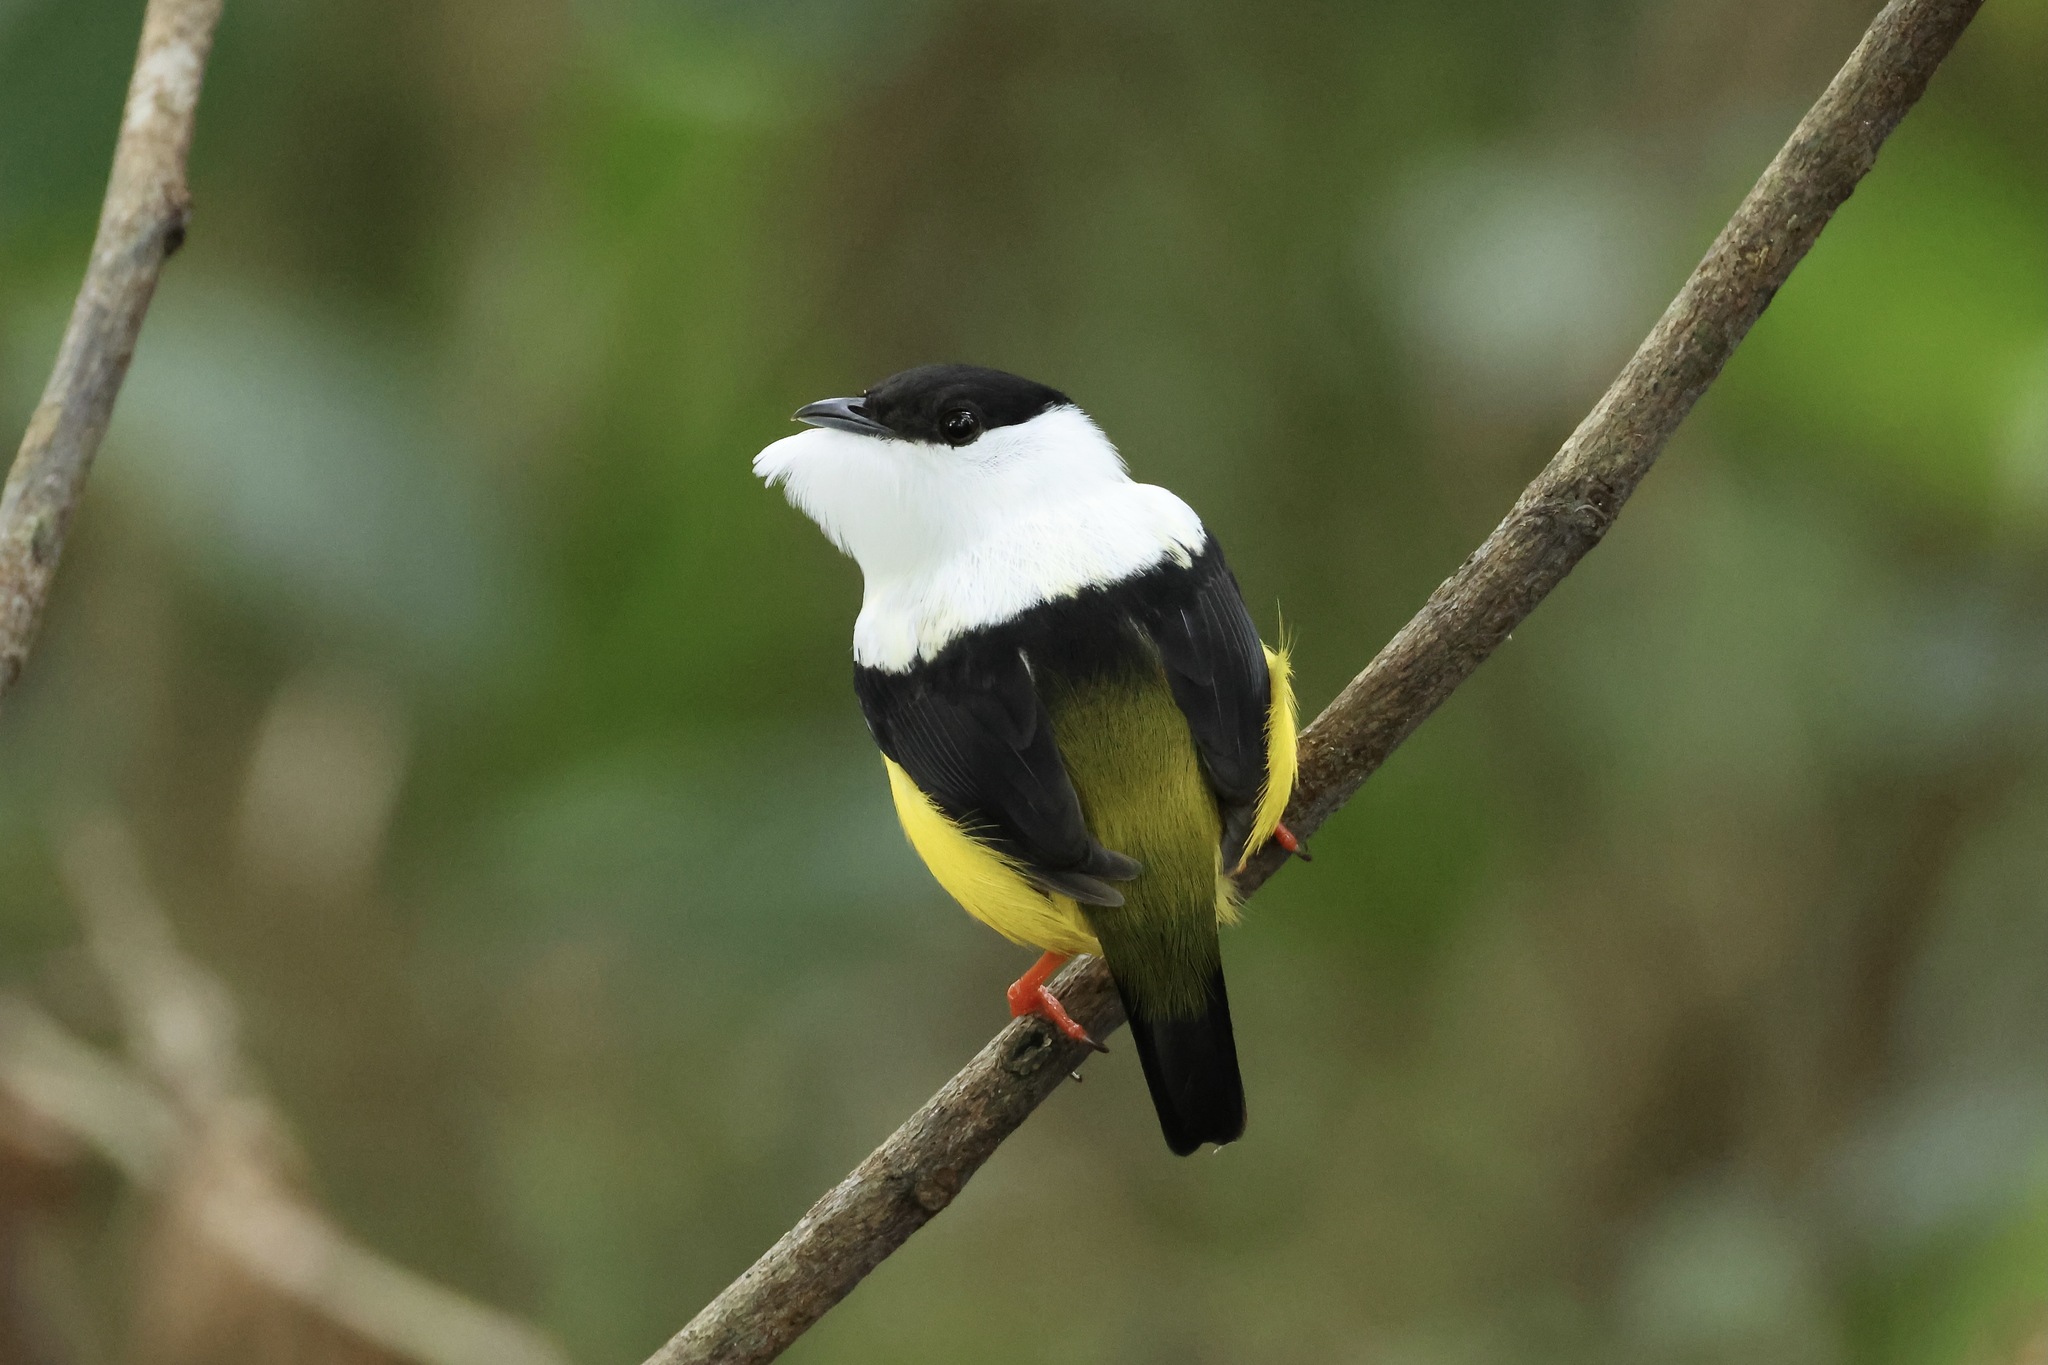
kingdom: Animalia
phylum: Chordata
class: Aves
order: Passeriformes
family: Pipridae
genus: Manacus
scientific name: Manacus candei
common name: White-collared manakin
